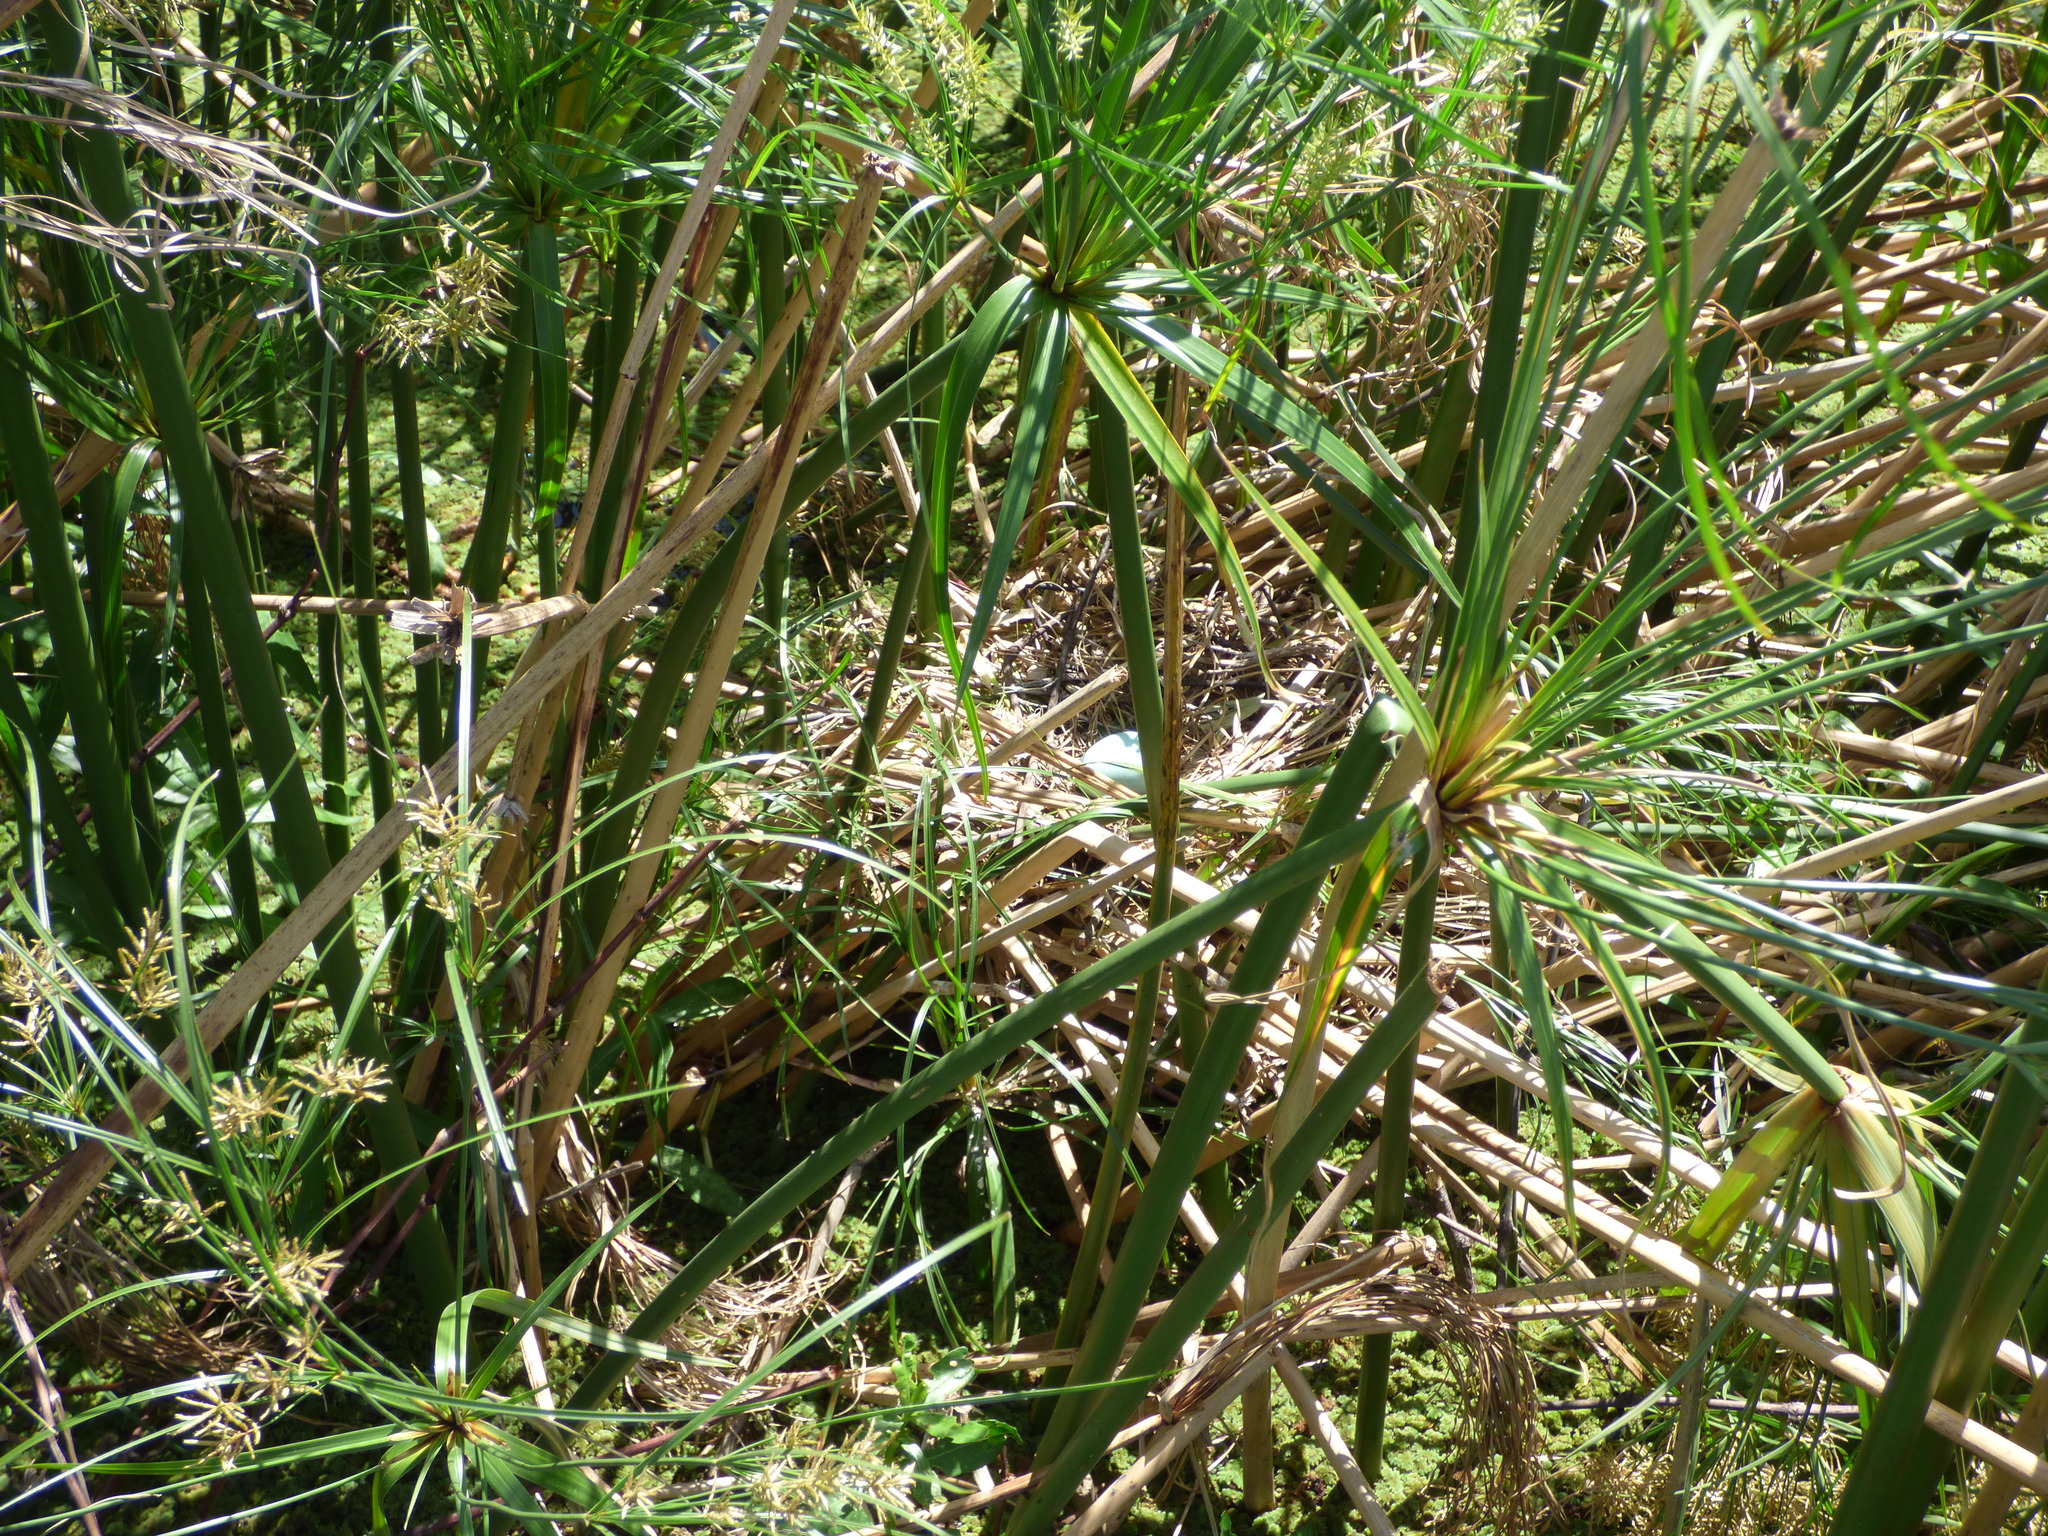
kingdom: Animalia
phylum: Chordata
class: Aves
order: Pelecaniformes
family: Threskiornithidae
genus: Phimosus
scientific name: Phimosus infuscatus
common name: Bare-faced ibis
